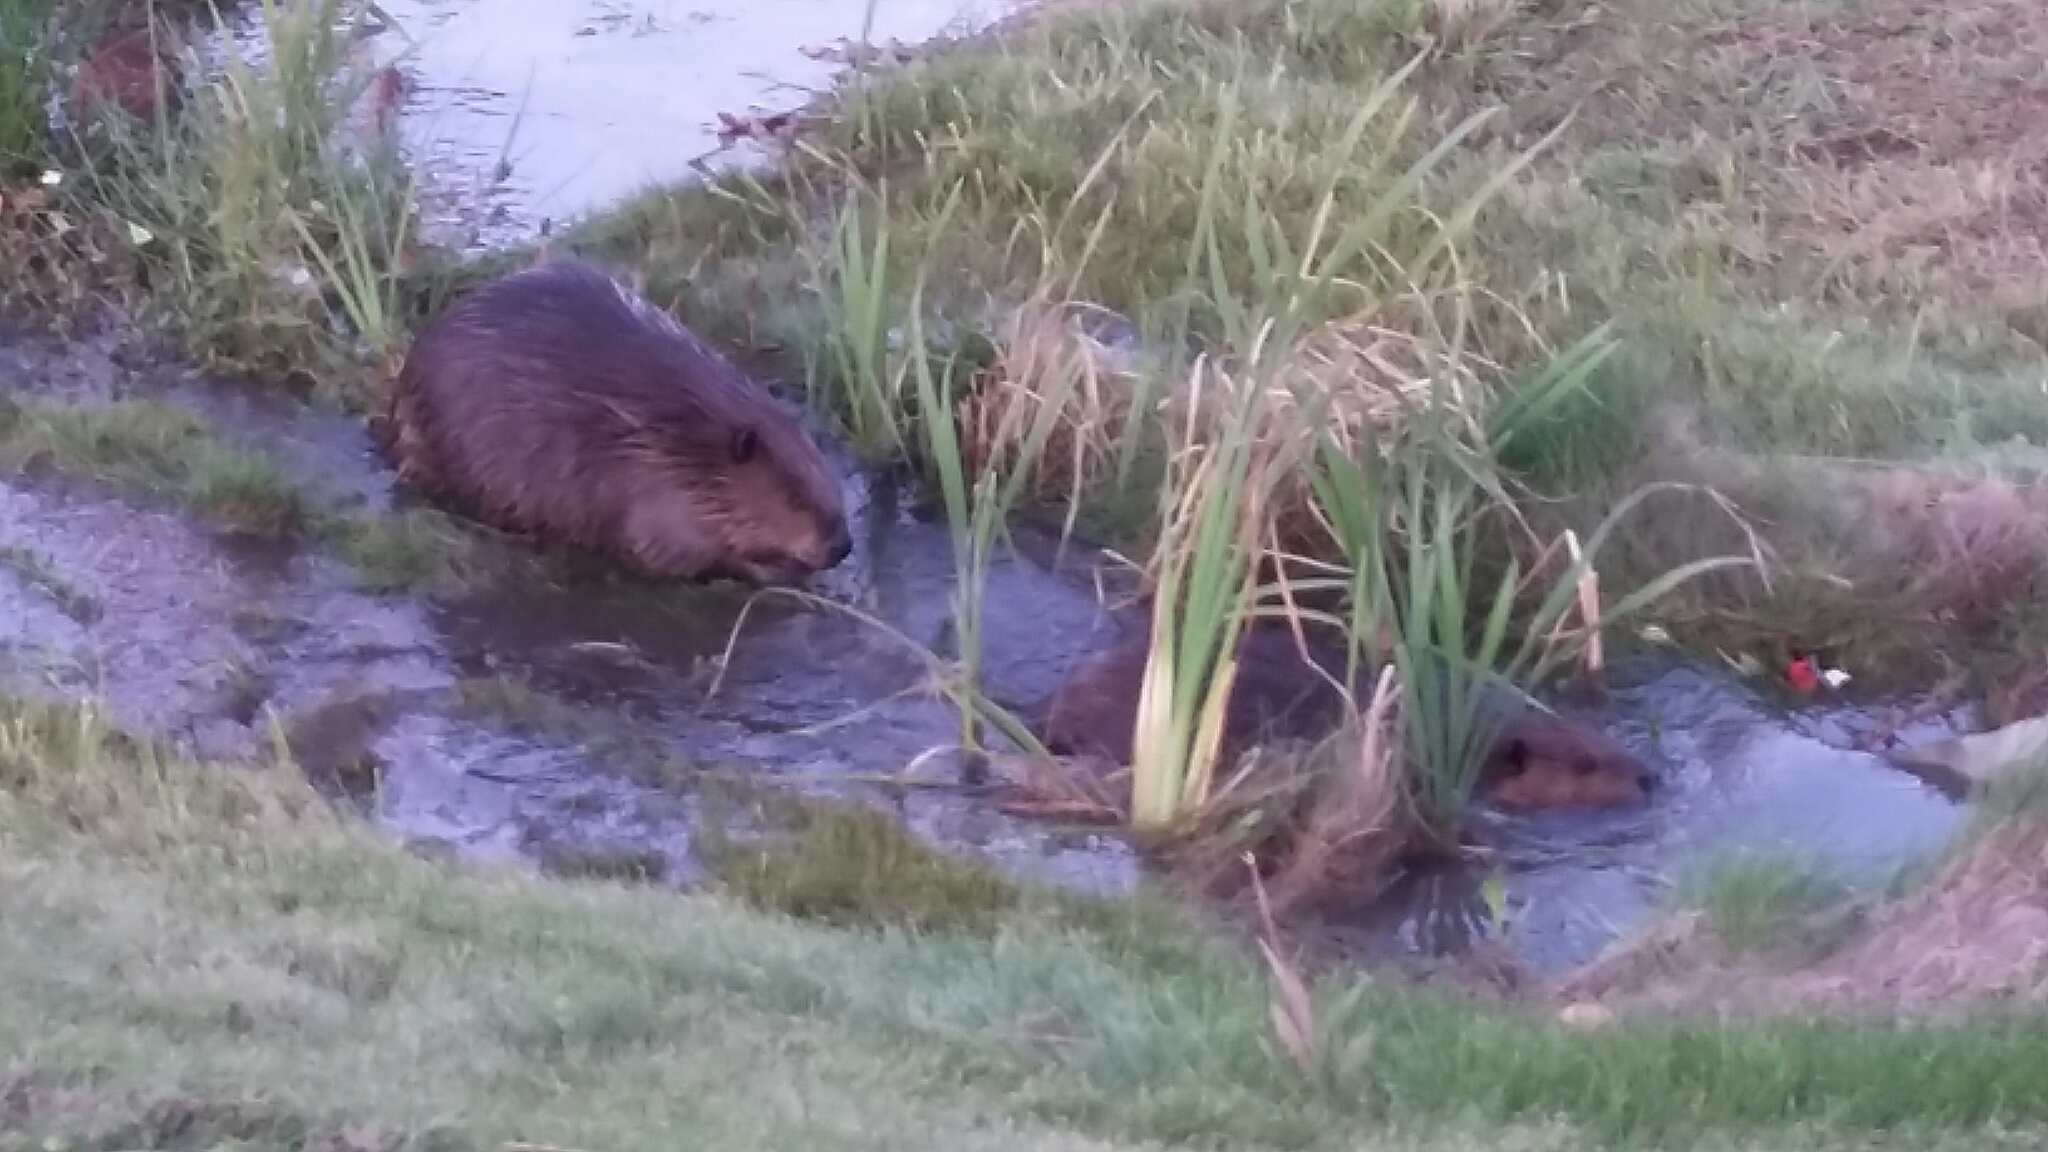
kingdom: Animalia
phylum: Chordata
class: Mammalia
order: Rodentia
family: Castoridae
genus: Castor
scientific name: Castor canadensis
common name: American beaver
